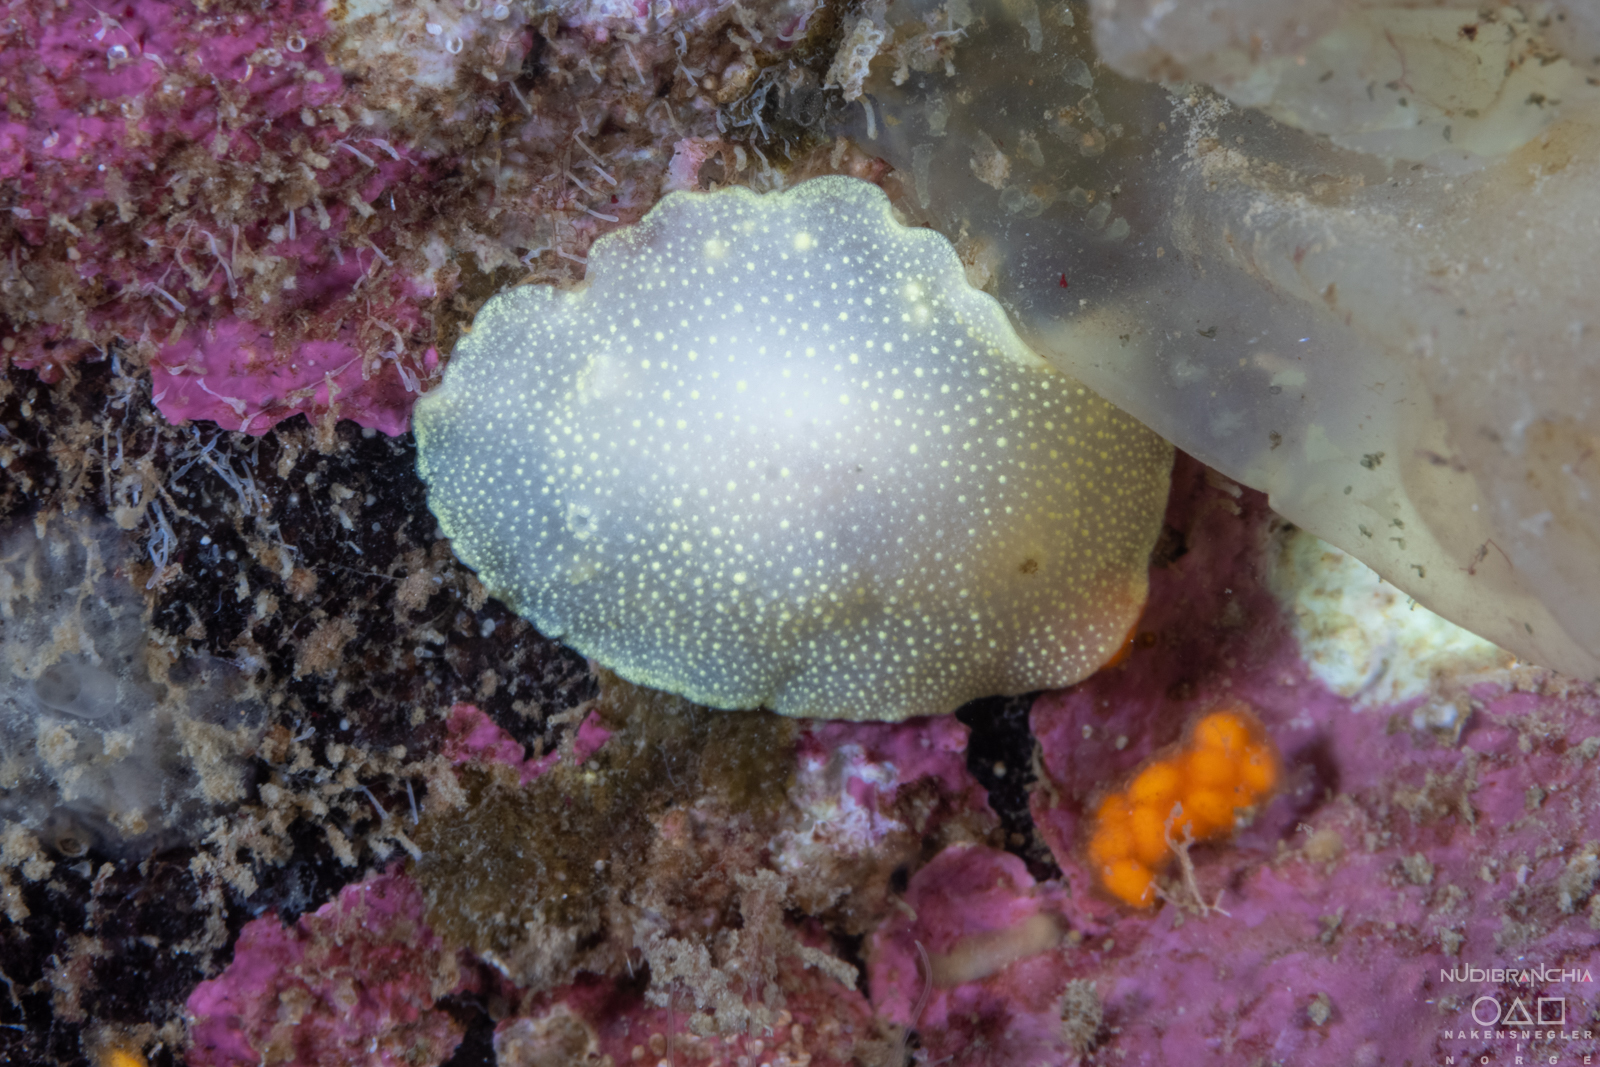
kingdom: Animalia
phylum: Mollusca
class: Gastropoda
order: Nudibranchia
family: Cadlinidae
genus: Cadlina
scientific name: Cadlina laevis
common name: White atlantic cadlina
